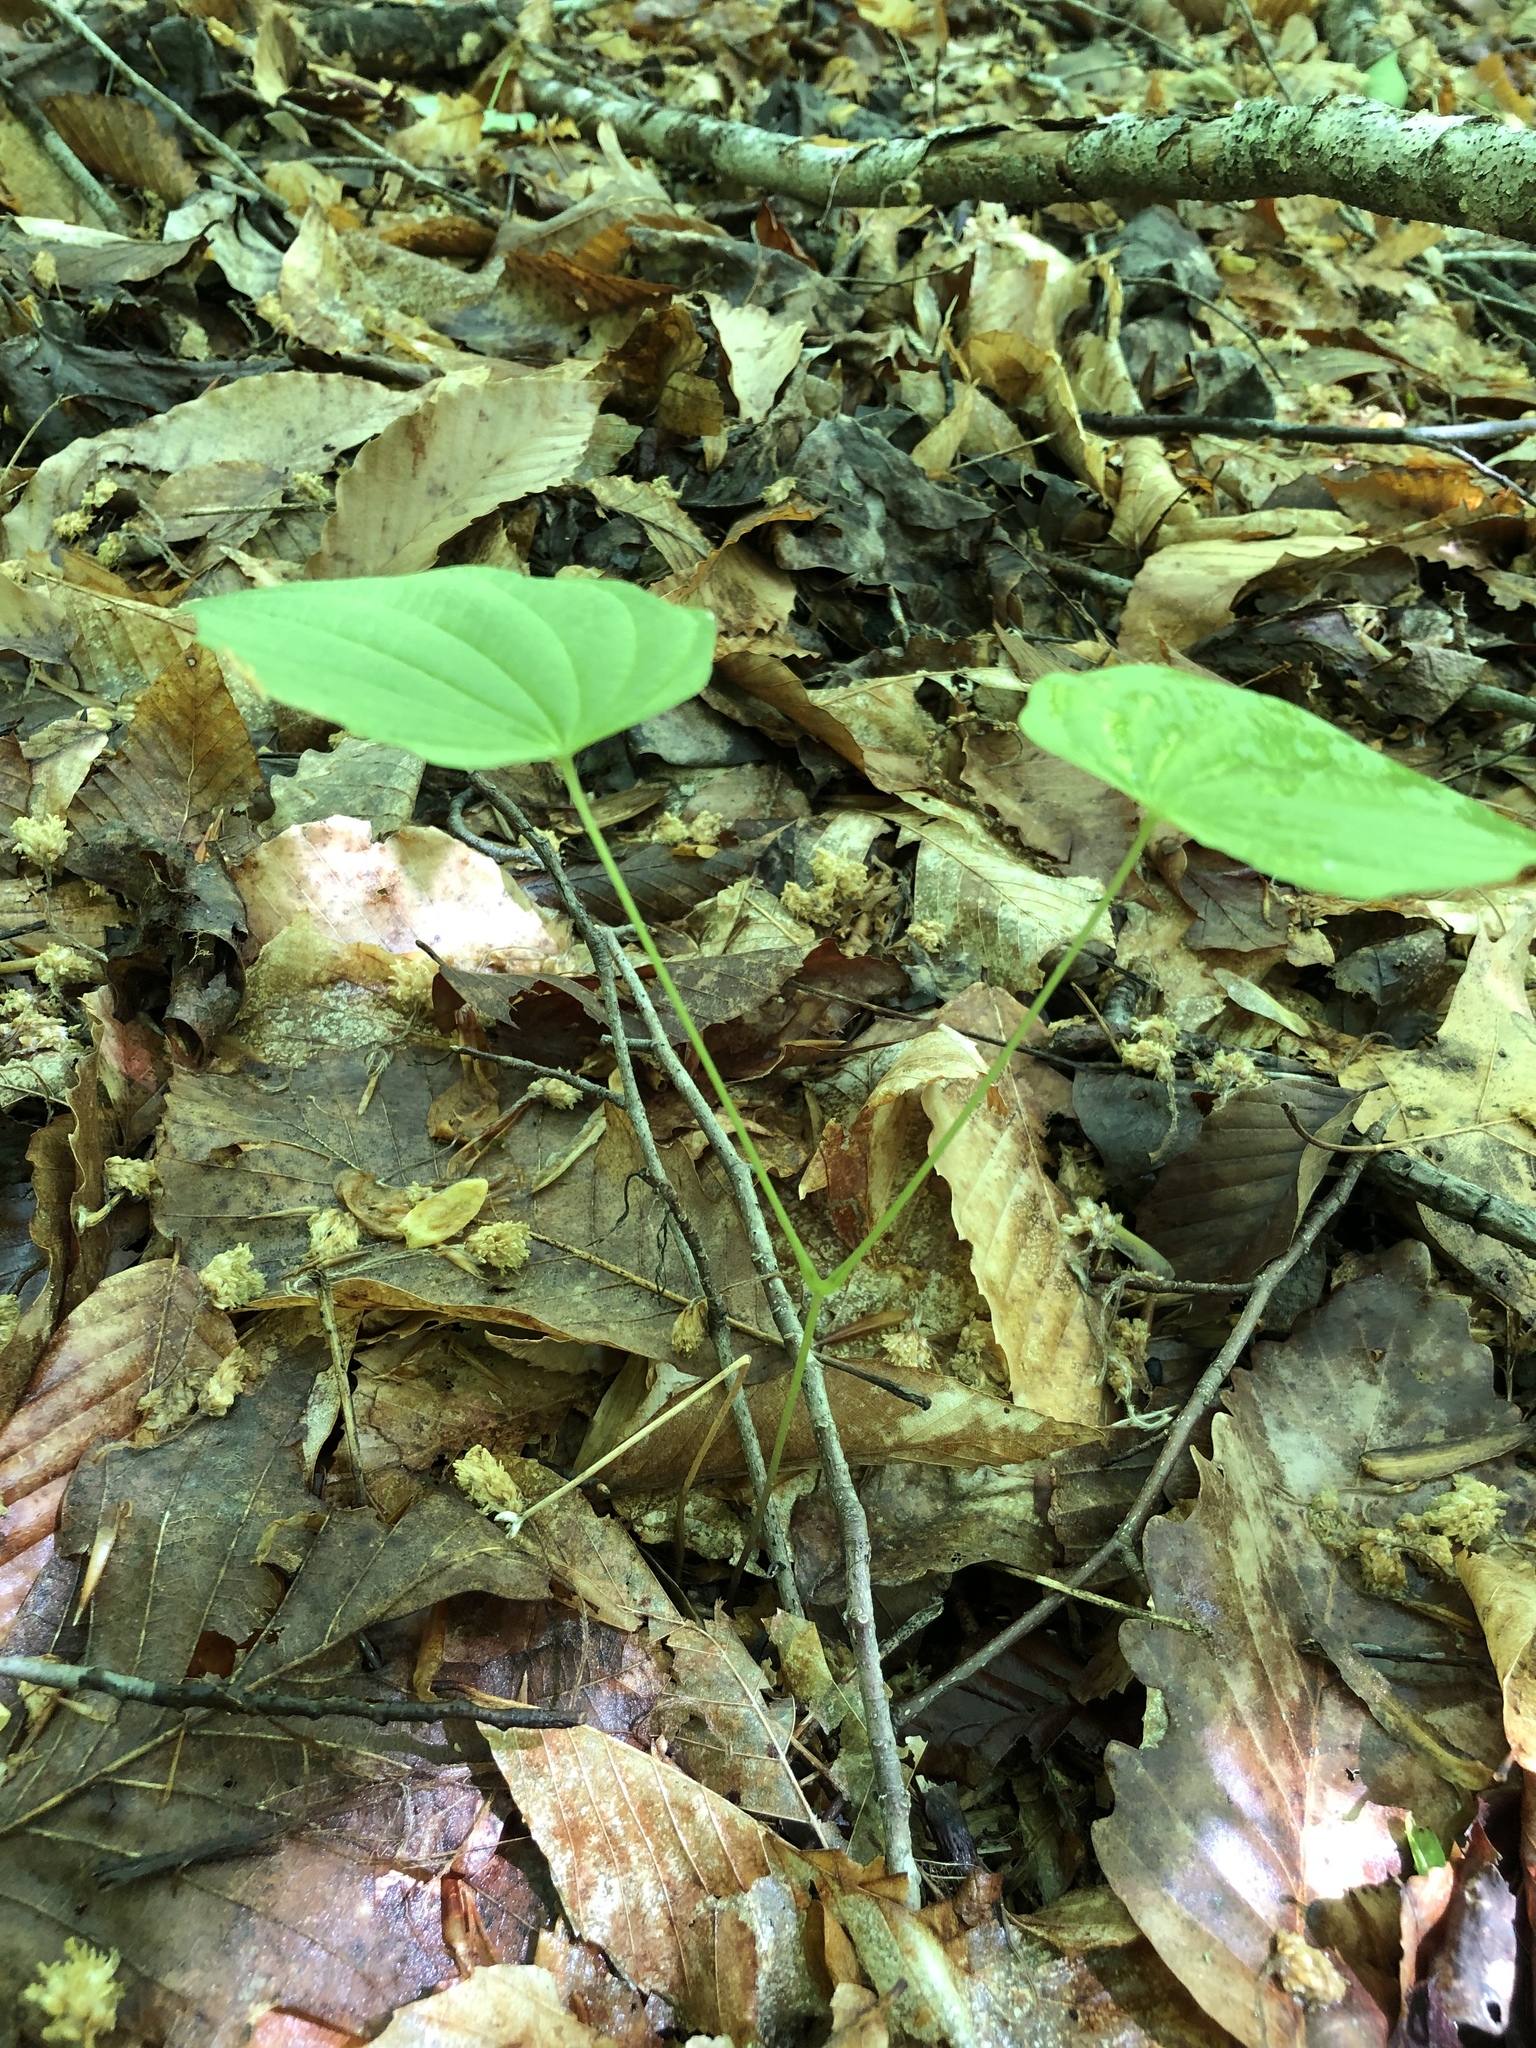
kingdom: Plantae
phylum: Tracheophyta
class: Liliopsida
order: Dioscoreales
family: Dioscoreaceae
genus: Dioscorea
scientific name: Dioscorea villosa
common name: Wild yam
